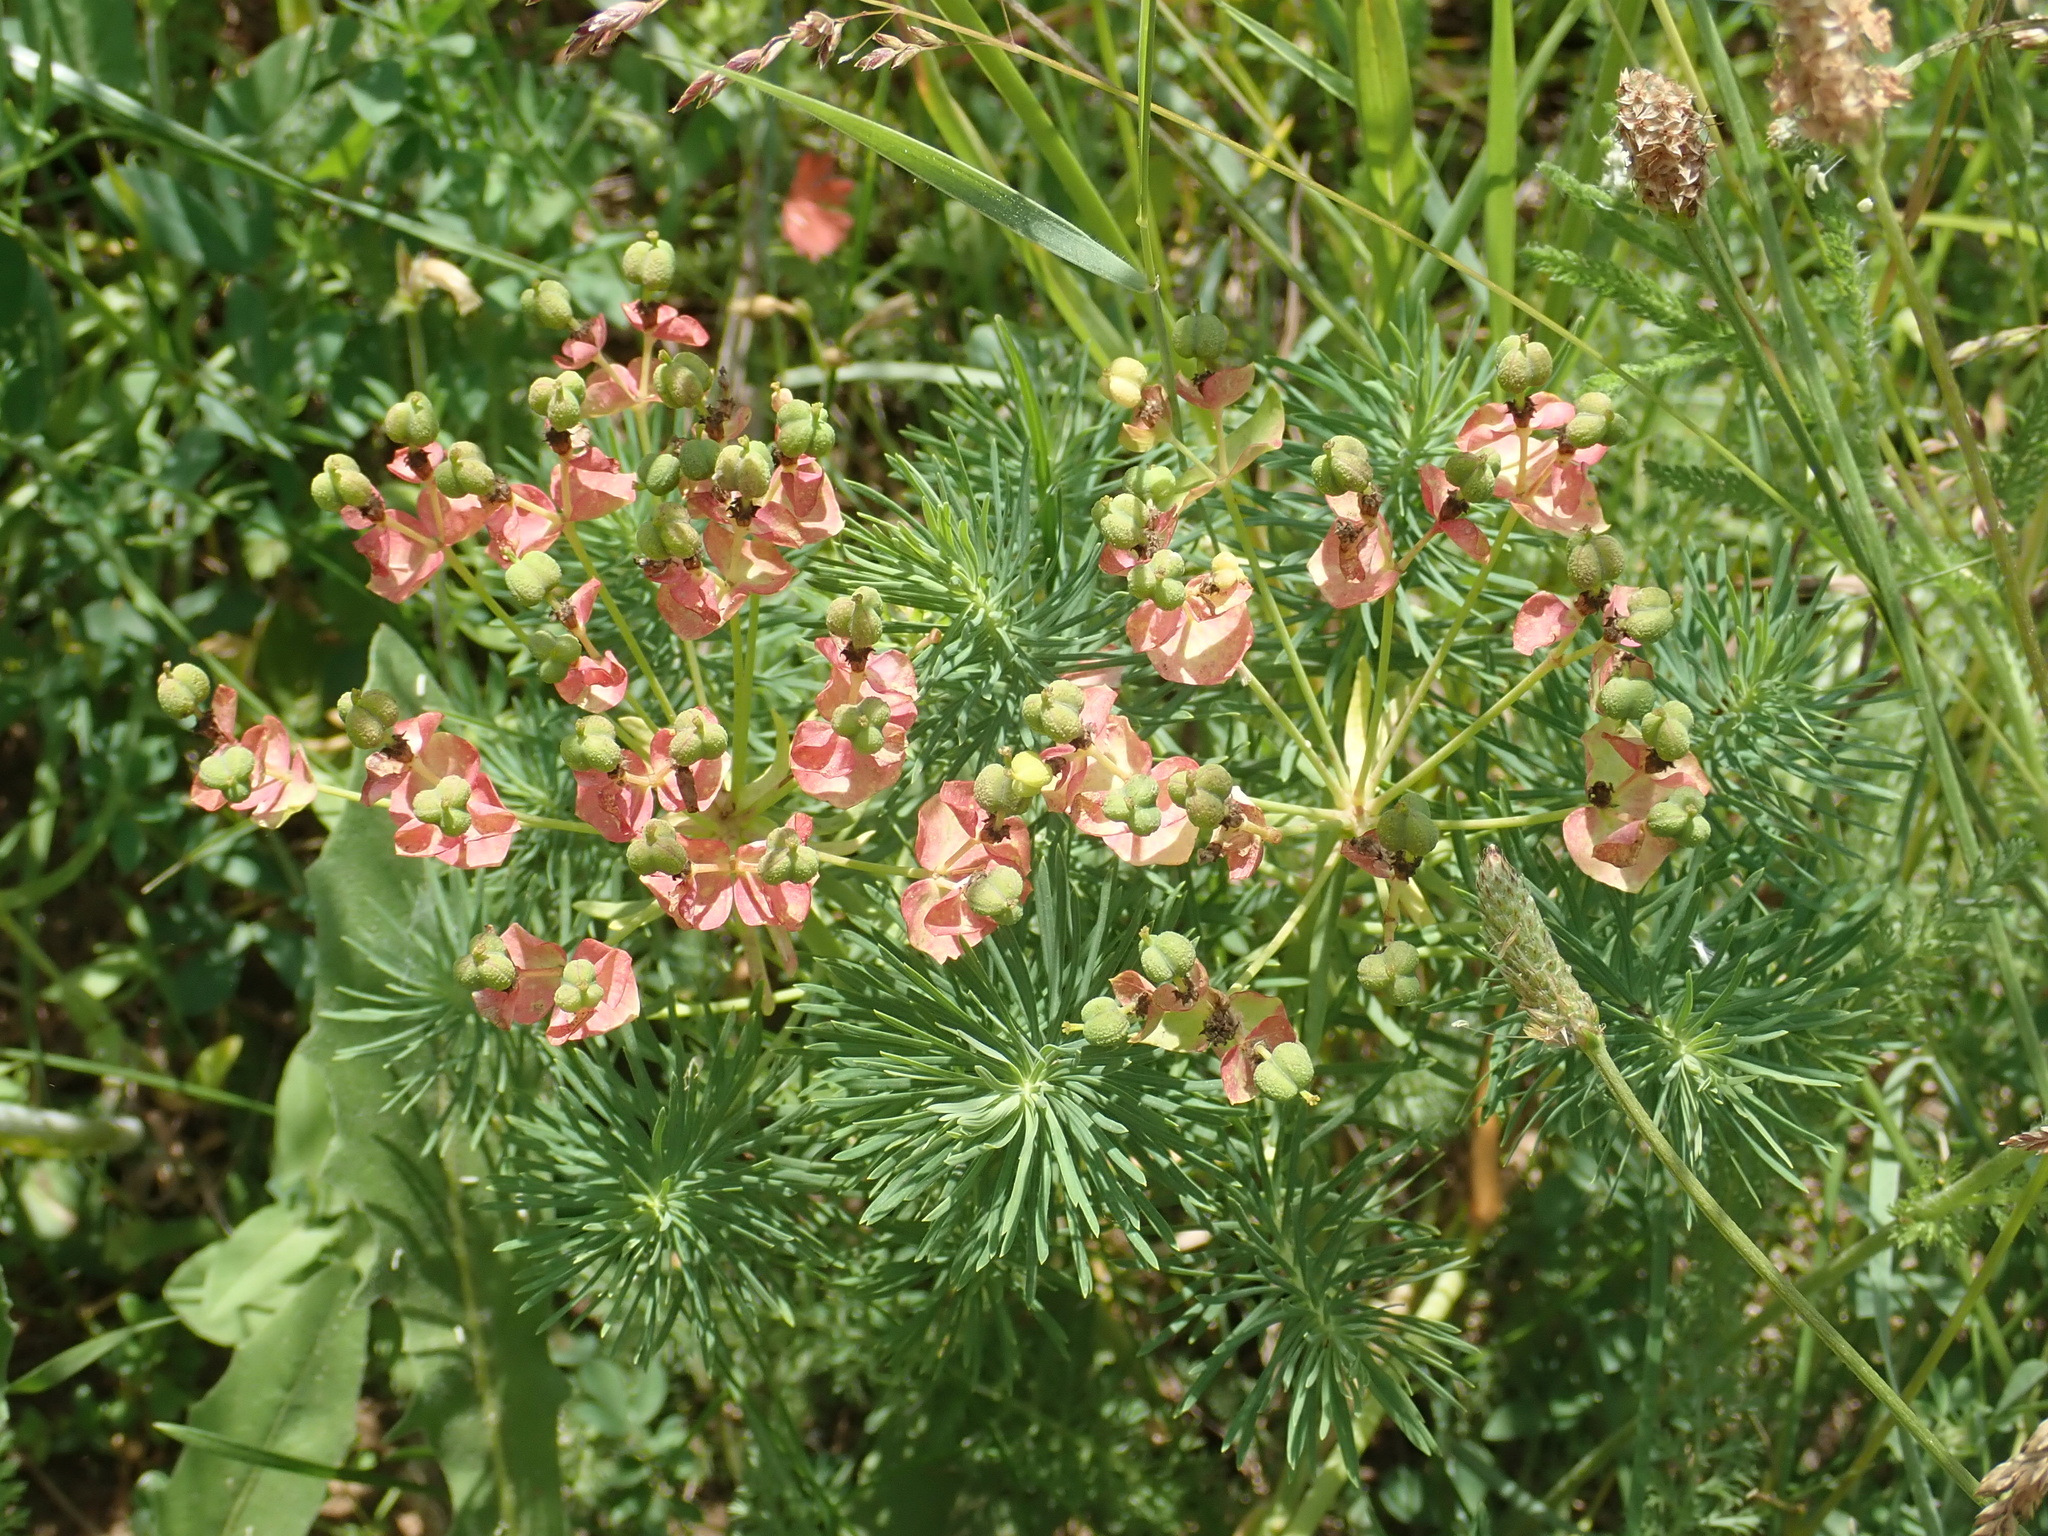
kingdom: Plantae
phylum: Tracheophyta
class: Magnoliopsida
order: Malpighiales
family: Euphorbiaceae
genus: Euphorbia
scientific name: Euphorbia cyparissias
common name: Cypress spurge
